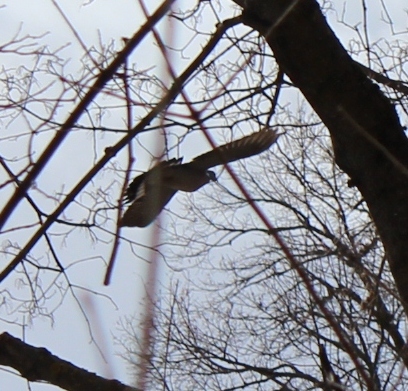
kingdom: Animalia
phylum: Chordata
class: Aves
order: Columbiformes
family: Columbidae
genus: Columba
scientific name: Columba palumbus
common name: Common wood pigeon
